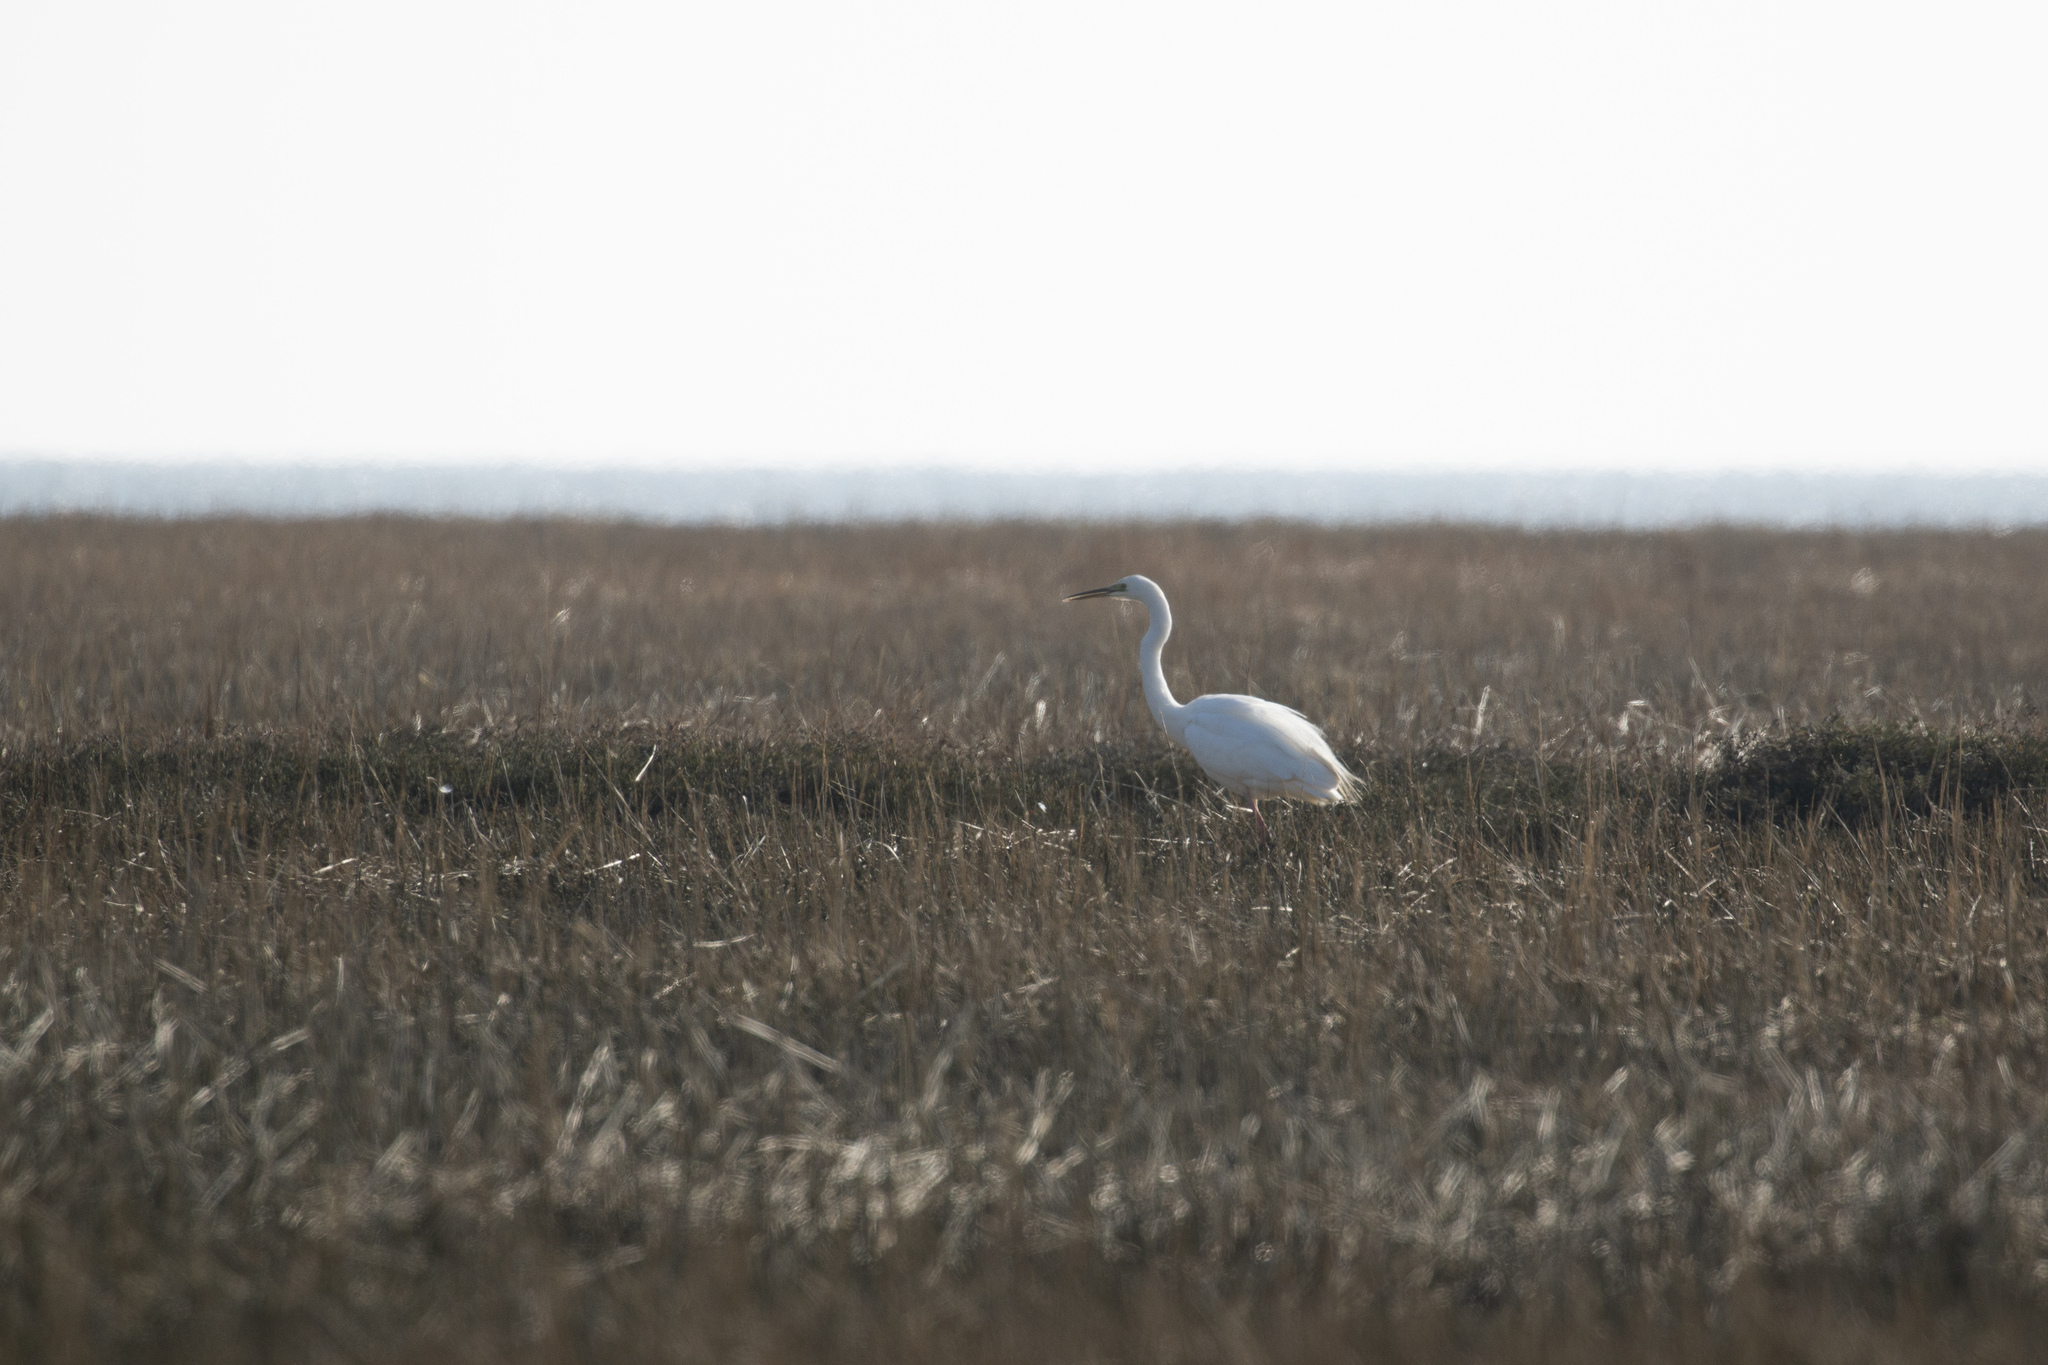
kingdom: Animalia
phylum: Chordata
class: Aves
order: Pelecaniformes
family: Ardeidae
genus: Ardea
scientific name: Ardea alba
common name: Great egret
